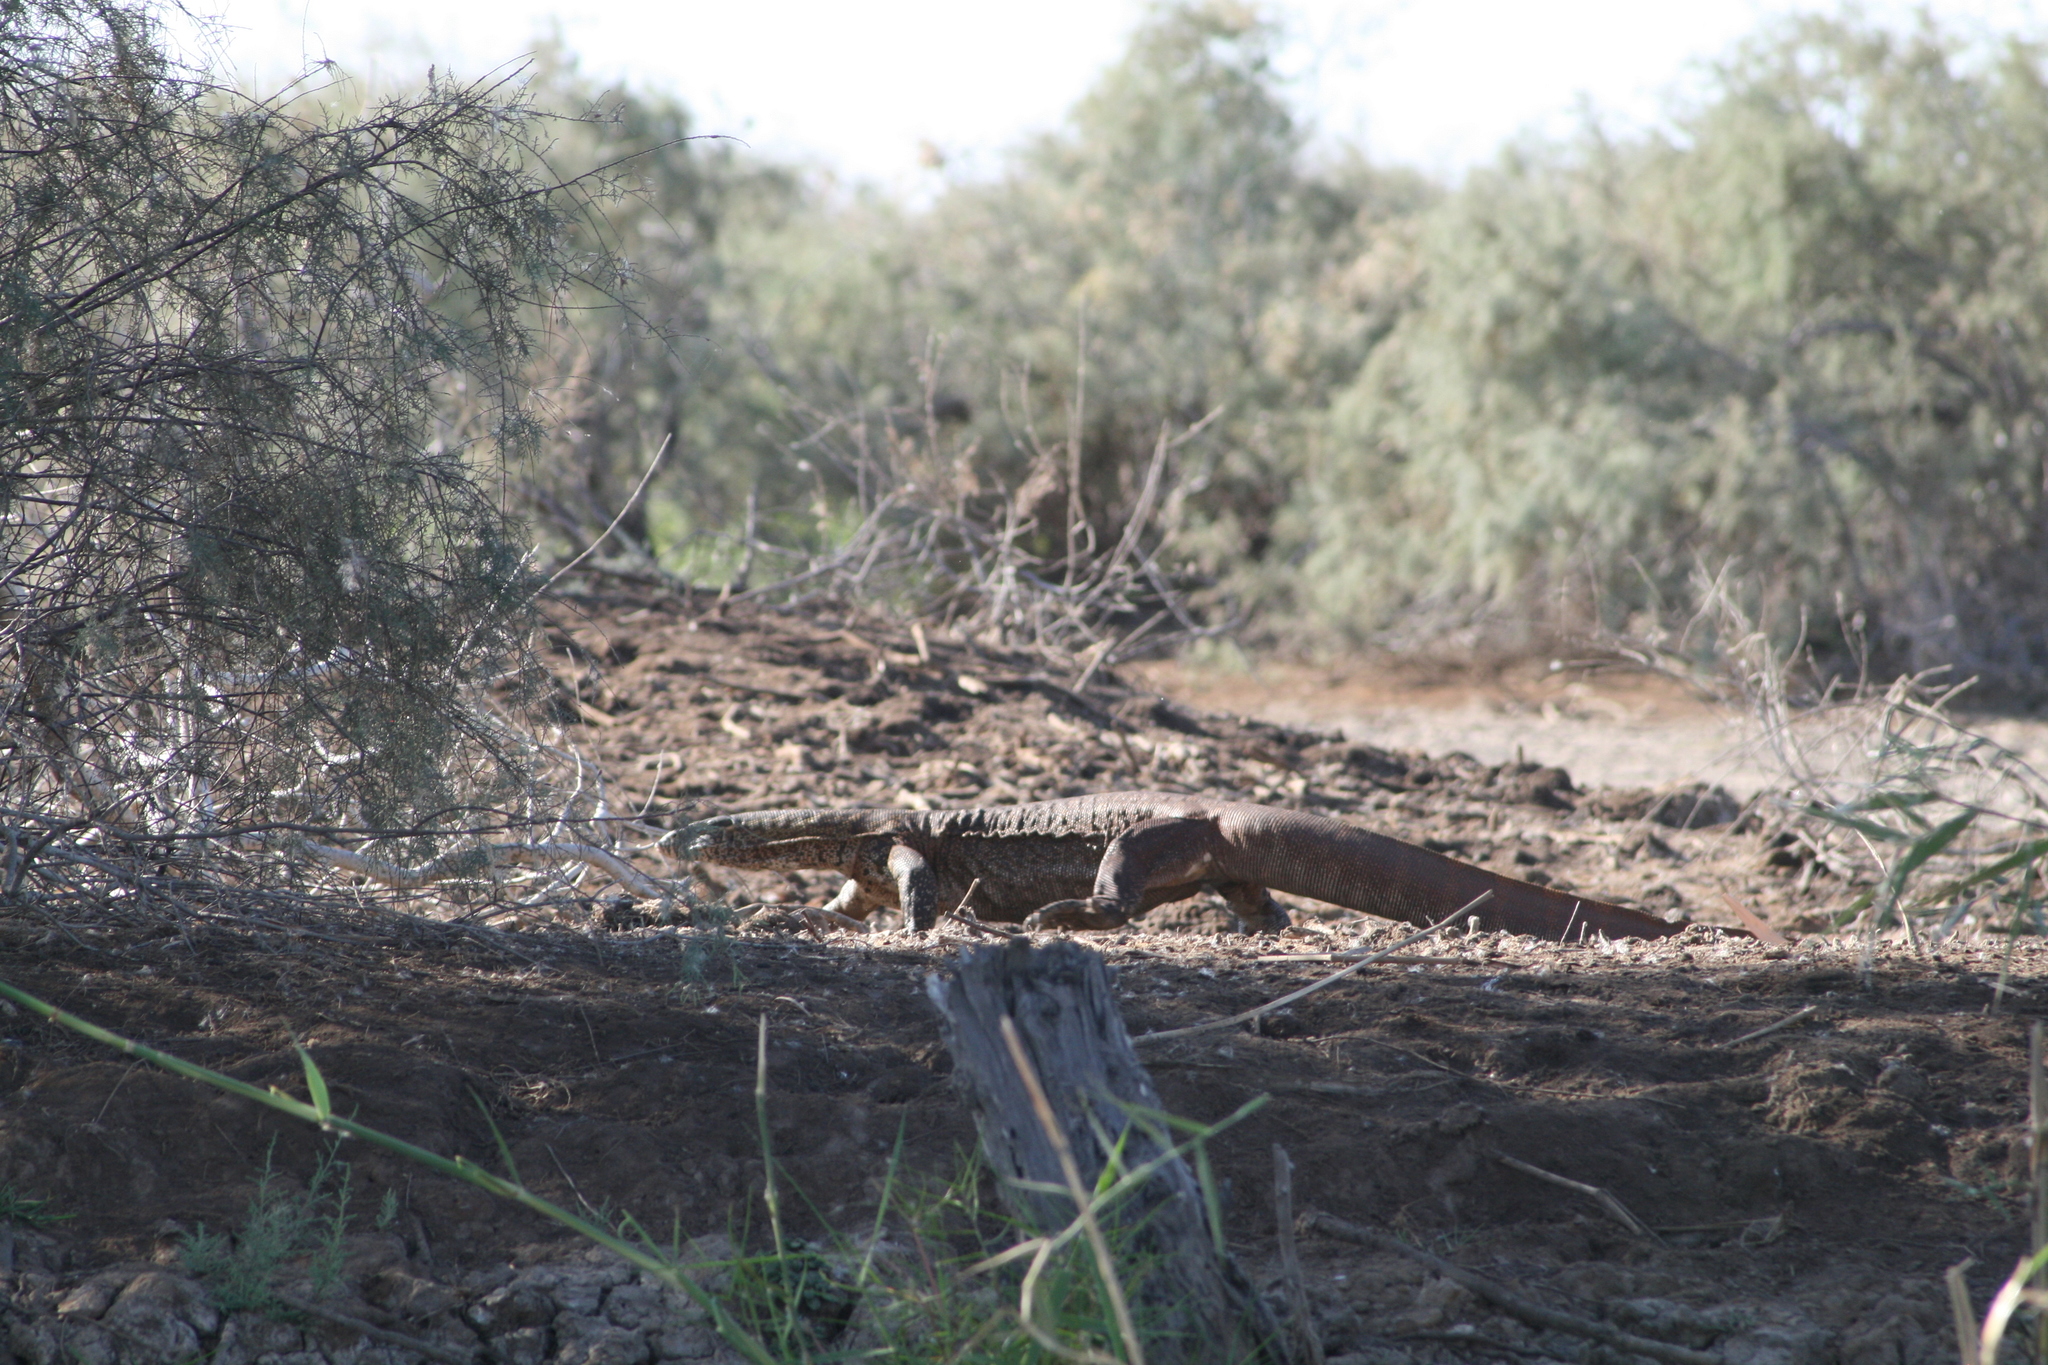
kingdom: Animalia
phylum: Chordata
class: Squamata
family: Varanidae
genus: Varanus
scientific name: Varanus niloticus
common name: Nile monitor
